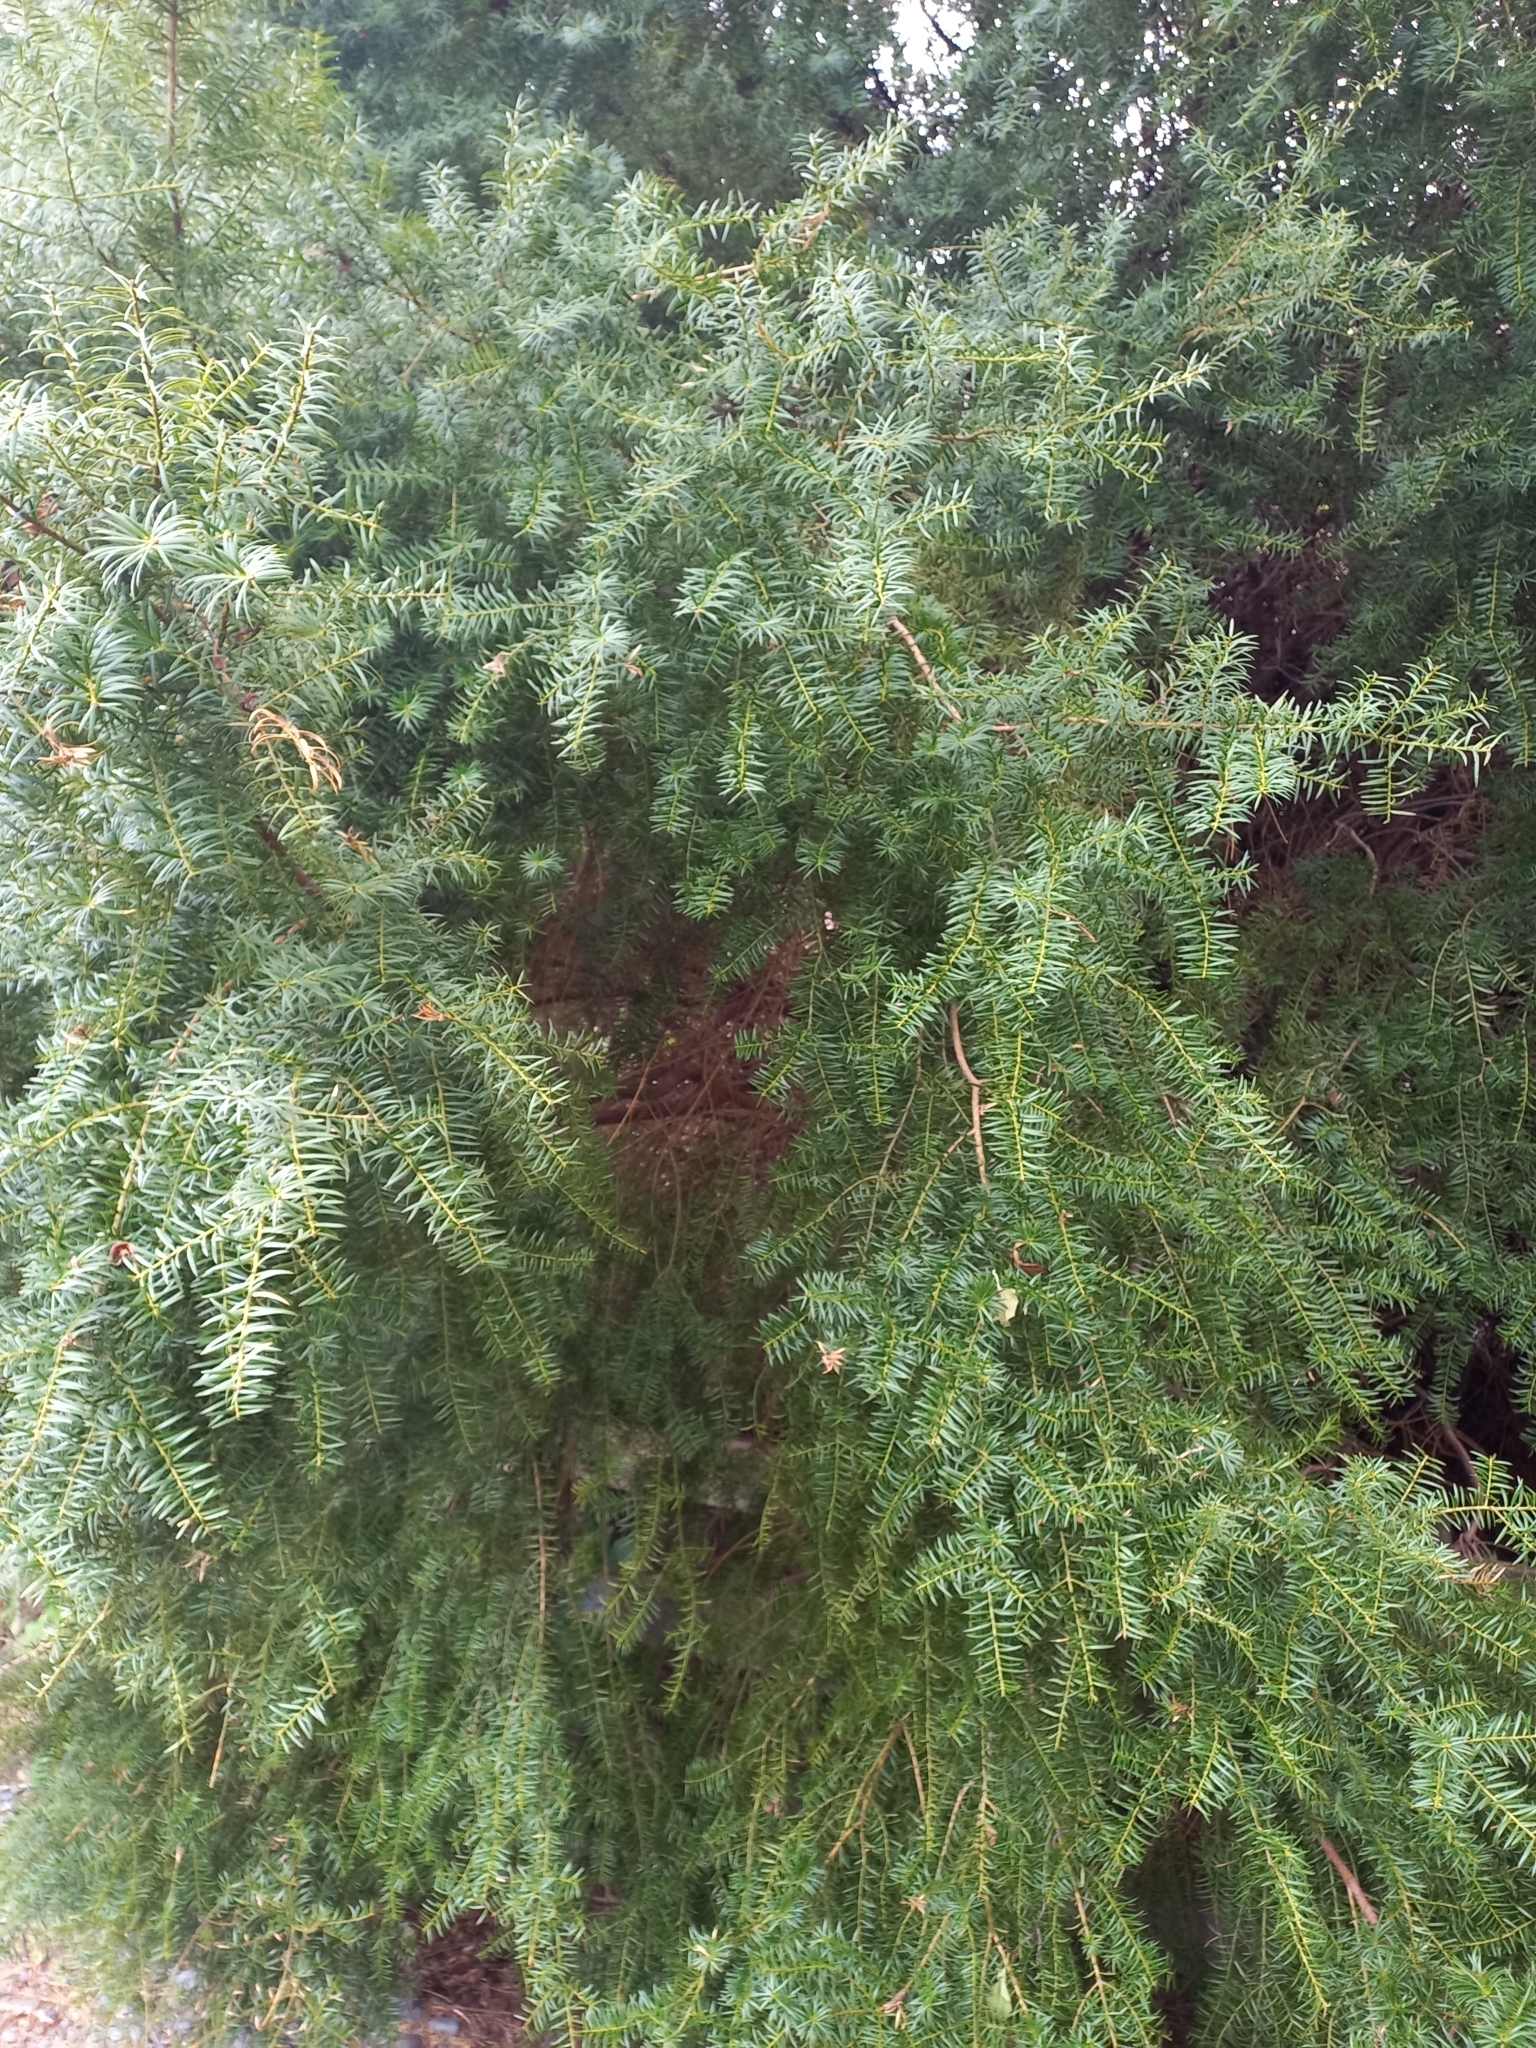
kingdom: Plantae
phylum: Tracheophyta
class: Pinopsida
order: Pinales
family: Podocarpaceae
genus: Podocarpus
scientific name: Podocarpus totara
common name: Totara
